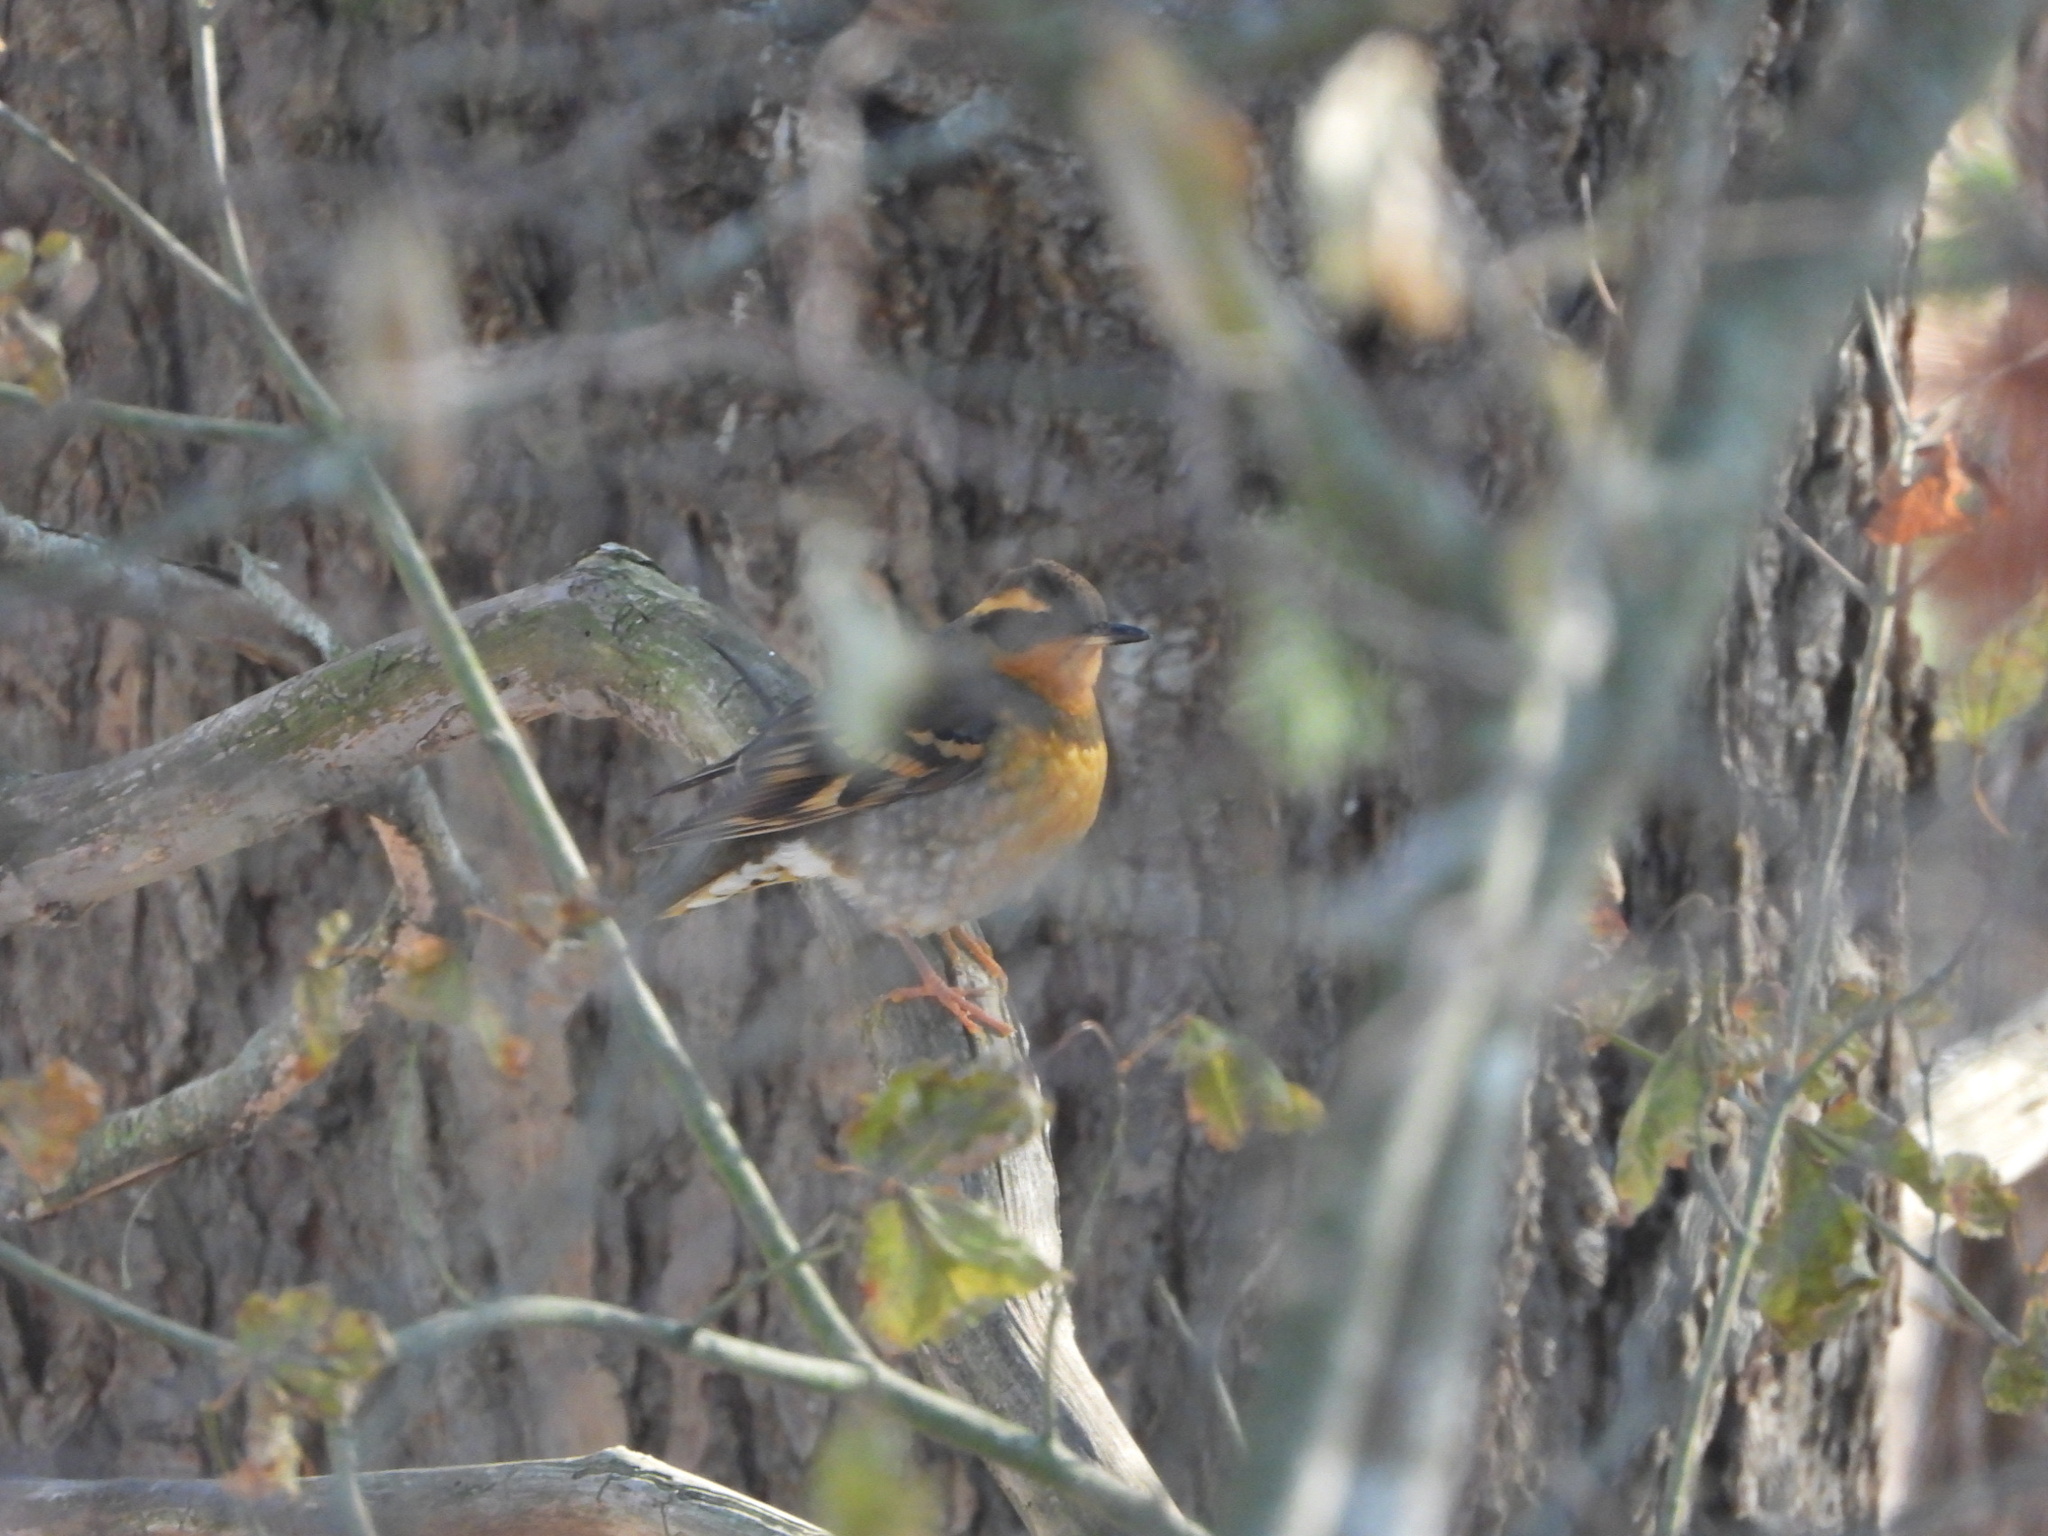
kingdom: Animalia
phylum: Chordata
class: Aves
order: Passeriformes
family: Turdidae
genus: Ixoreus
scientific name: Ixoreus naevius
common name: Varied thrush
